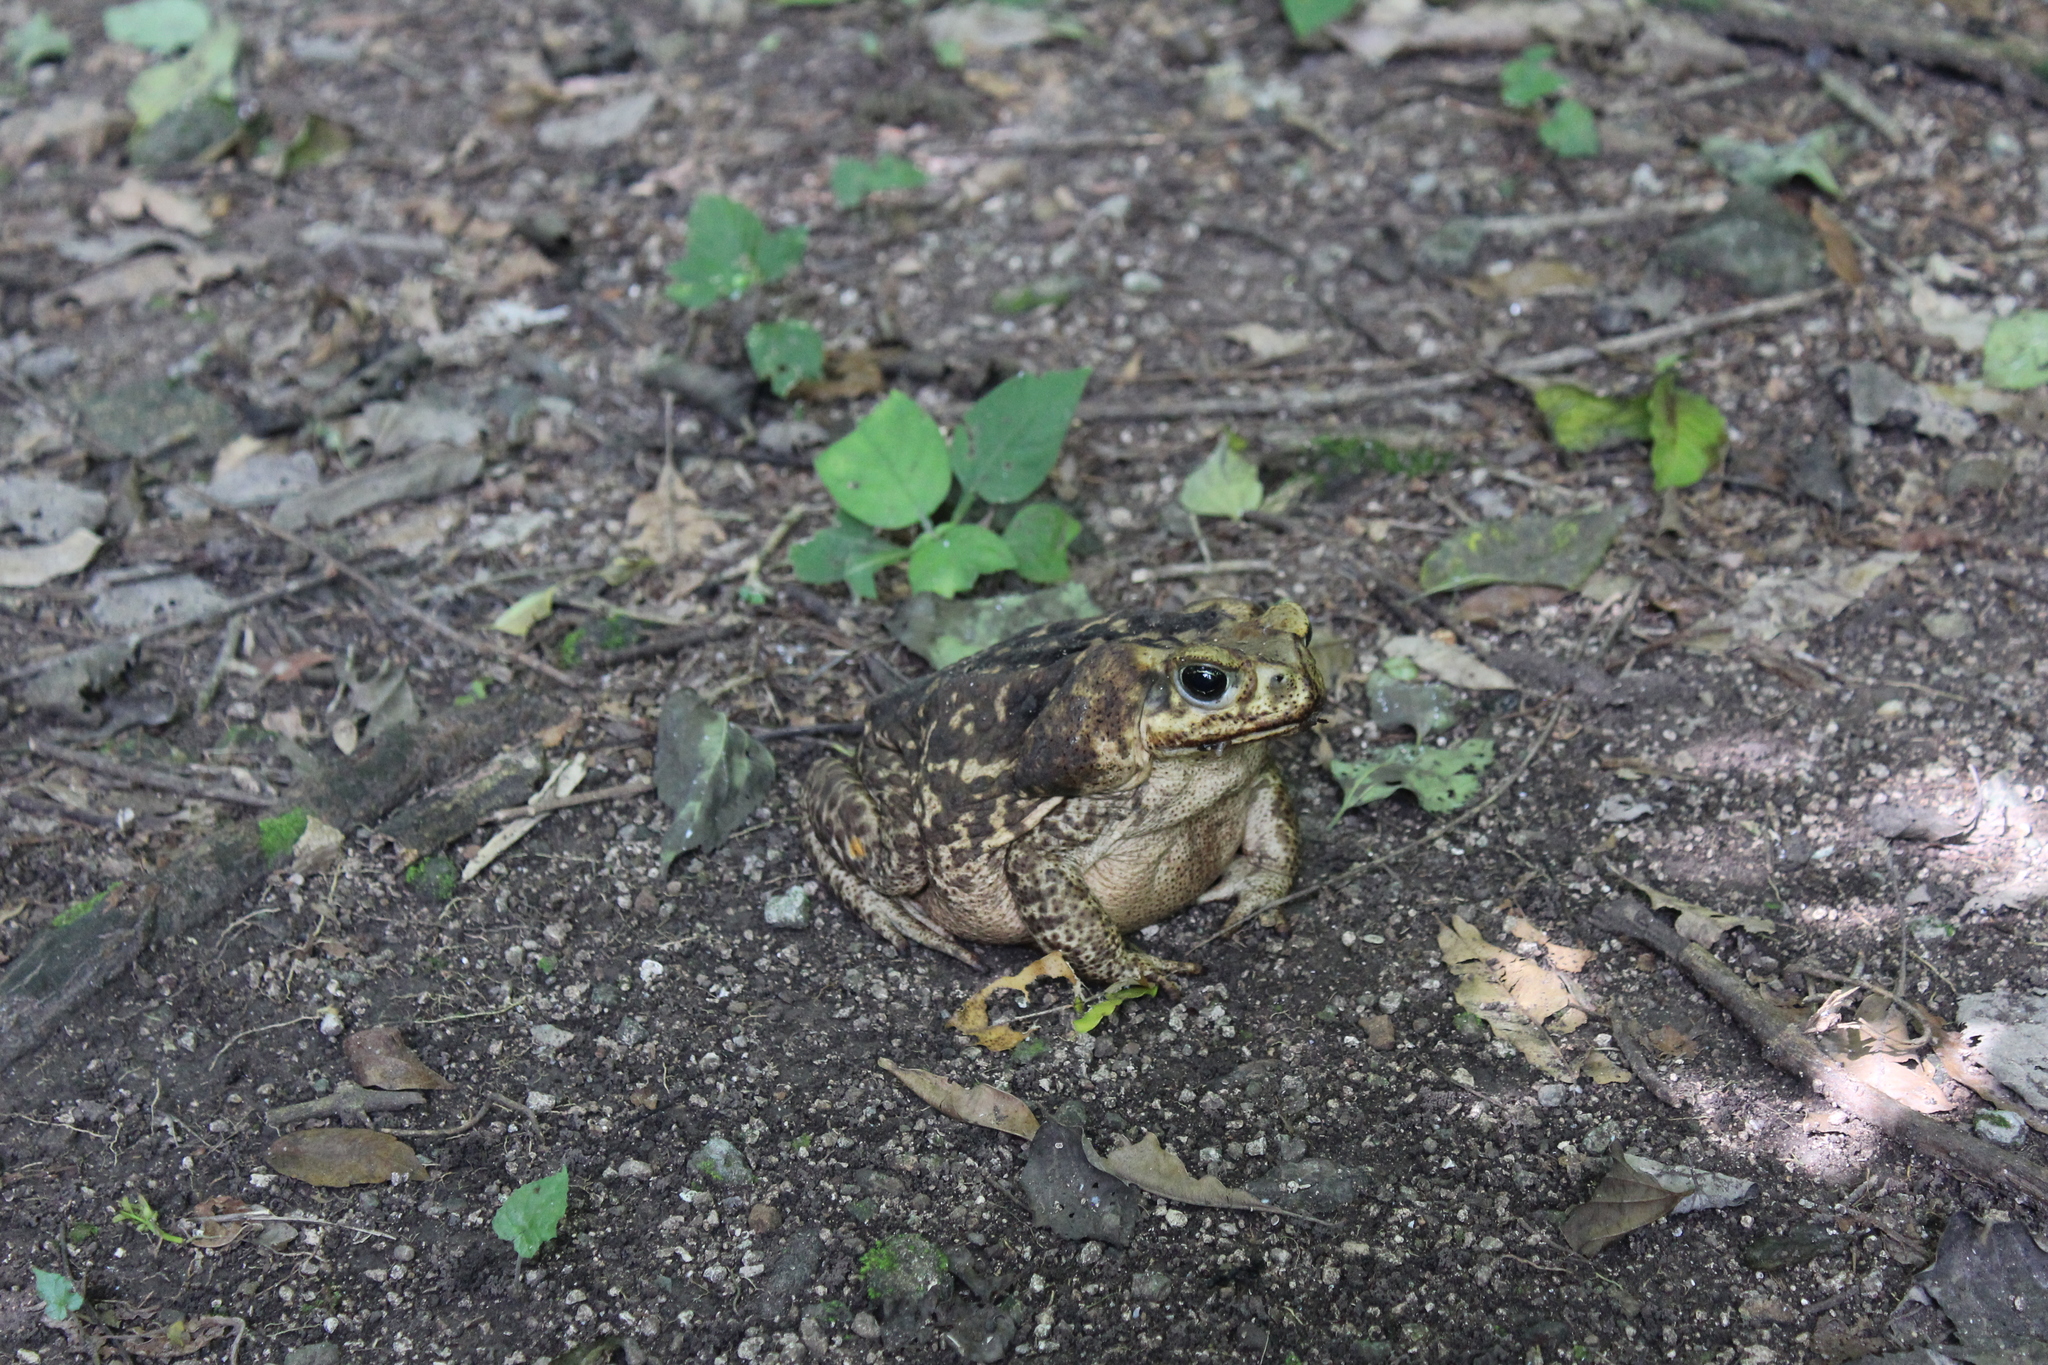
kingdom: Animalia
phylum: Chordata
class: Amphibia
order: Anura
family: Bufonidae
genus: Rhinella
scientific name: Rhinella horribilis
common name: Mesoamerican cane toad
